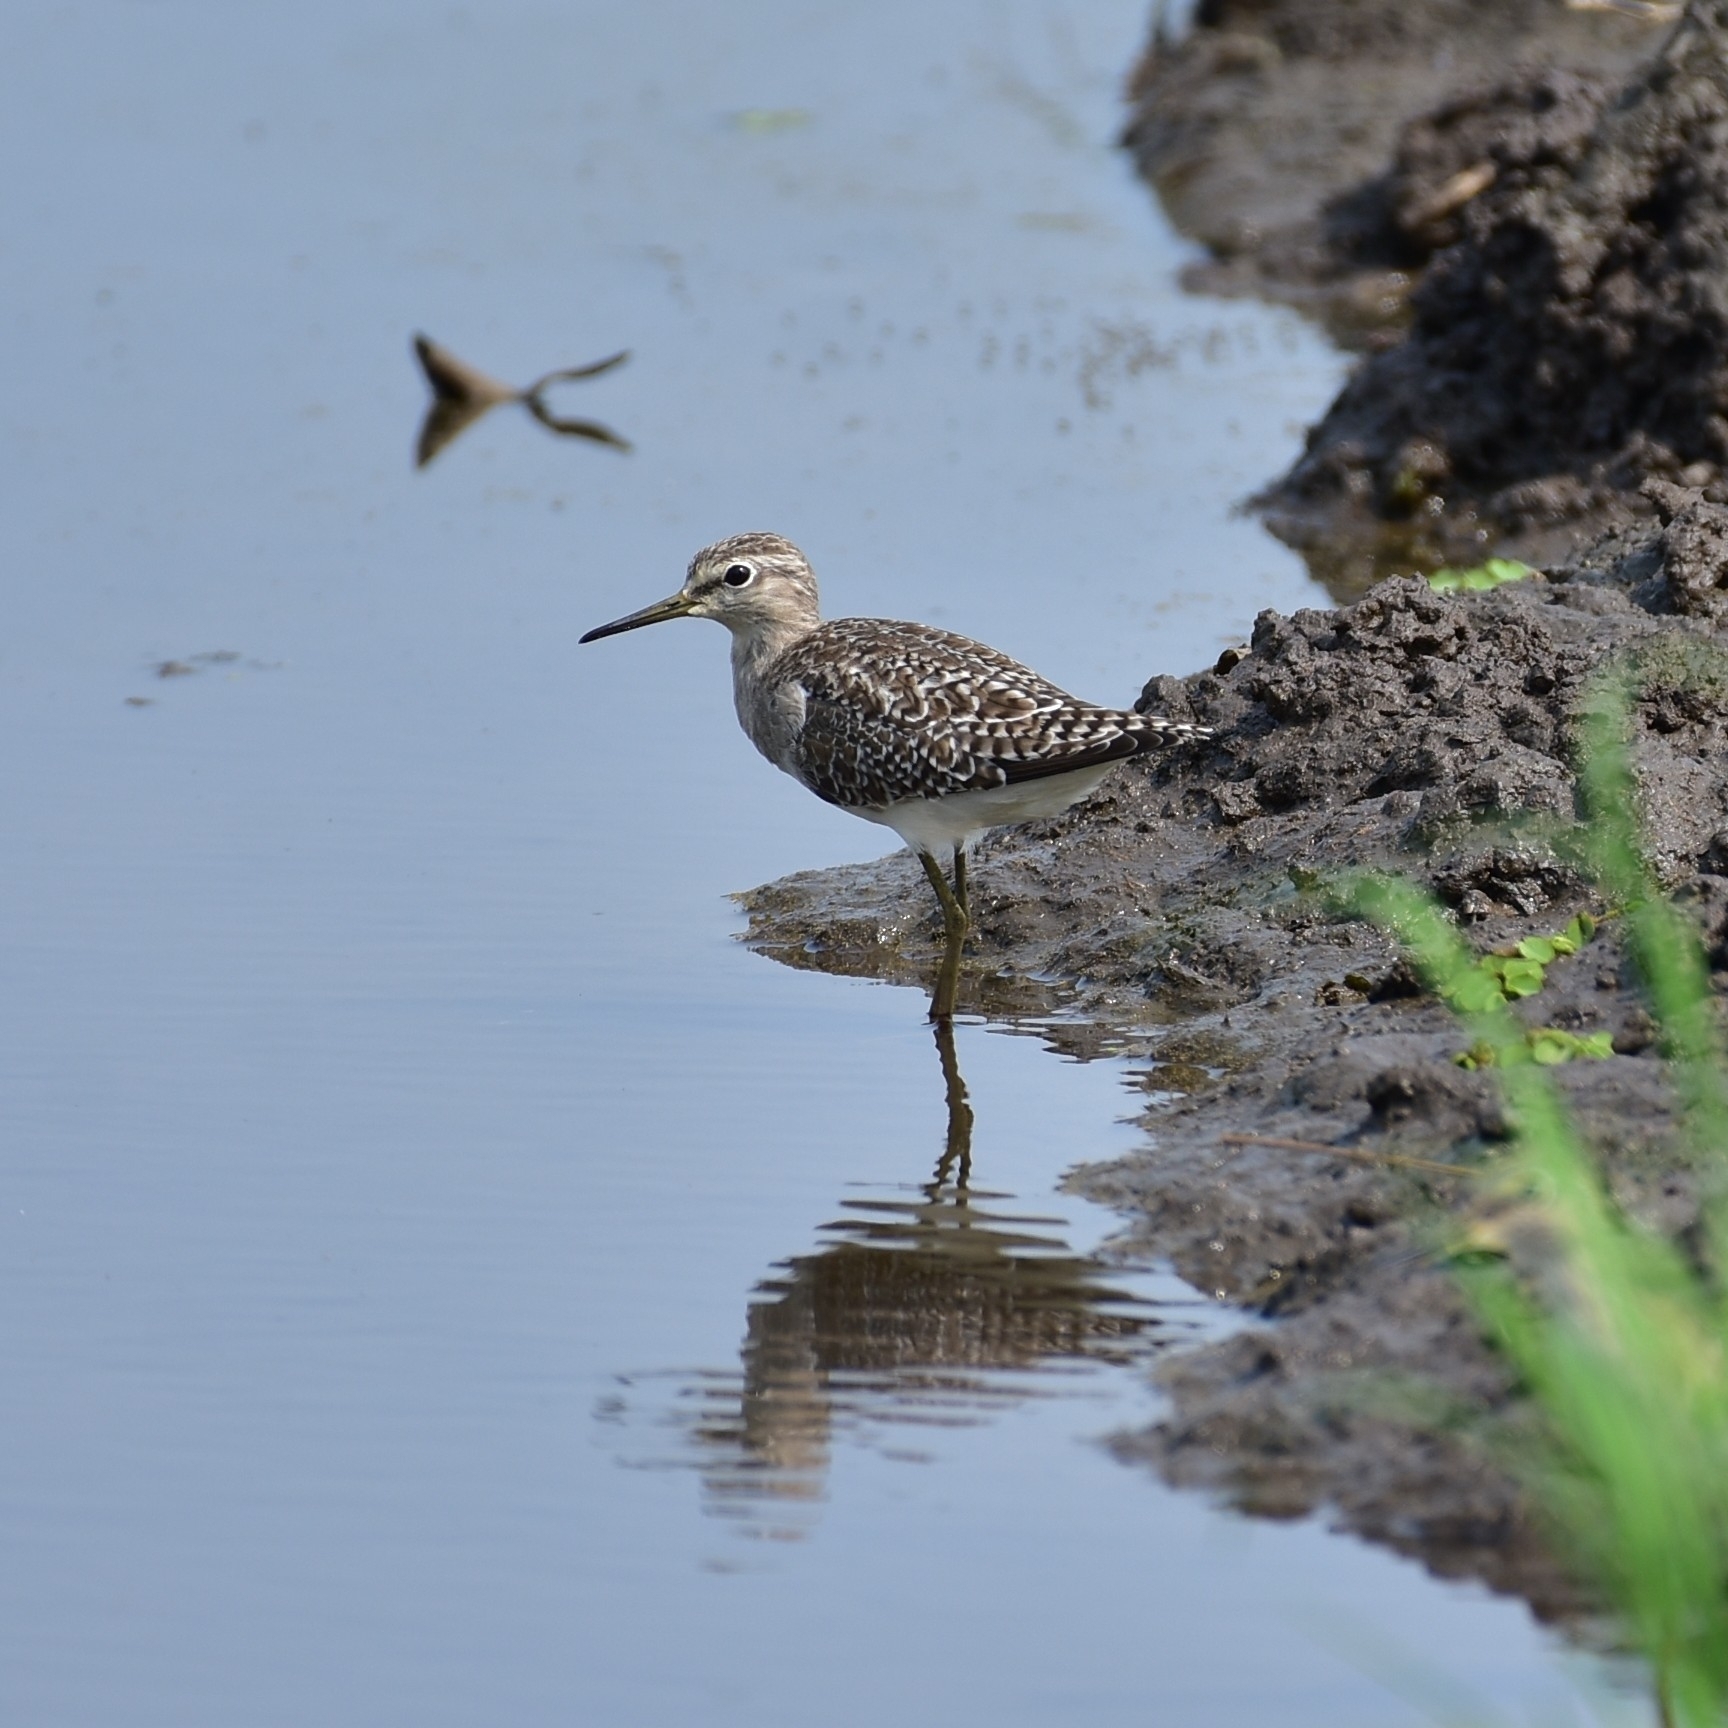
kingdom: Animalia
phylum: Chordata
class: Aves
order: Charadriiformes
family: Scolopacidae
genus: Tringa
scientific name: Tringa glareola
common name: Wood sandpiper
